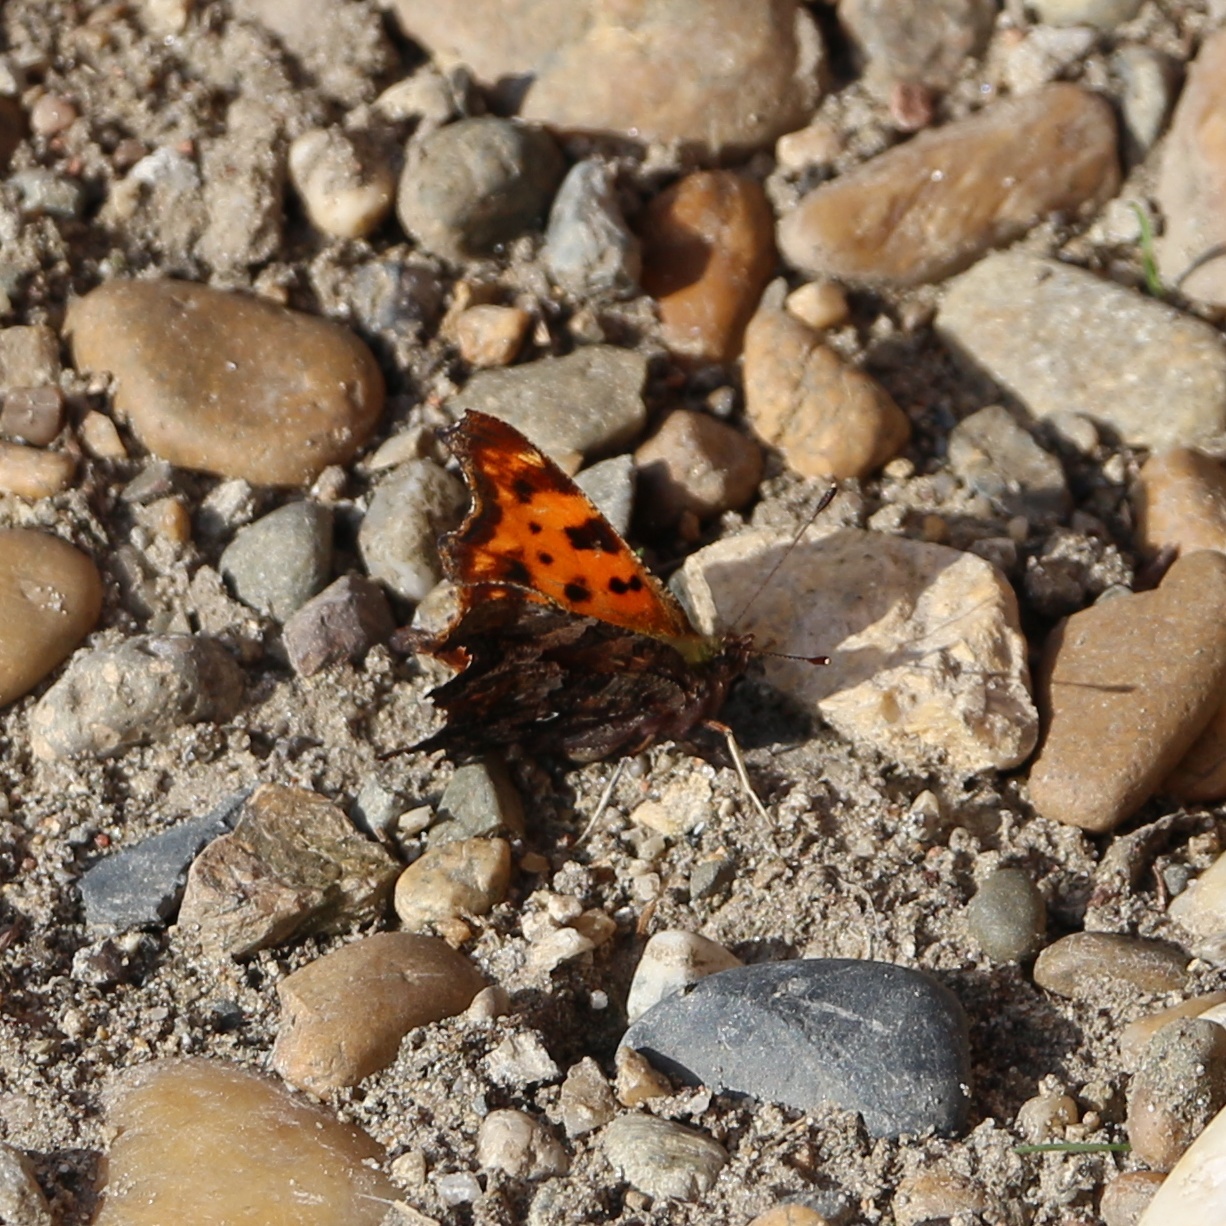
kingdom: Animalia
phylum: Arthropoda
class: Insecta
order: Lepidoptera
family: Nymphalidae
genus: Polygonia
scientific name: Polygonia c-album
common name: Comma
